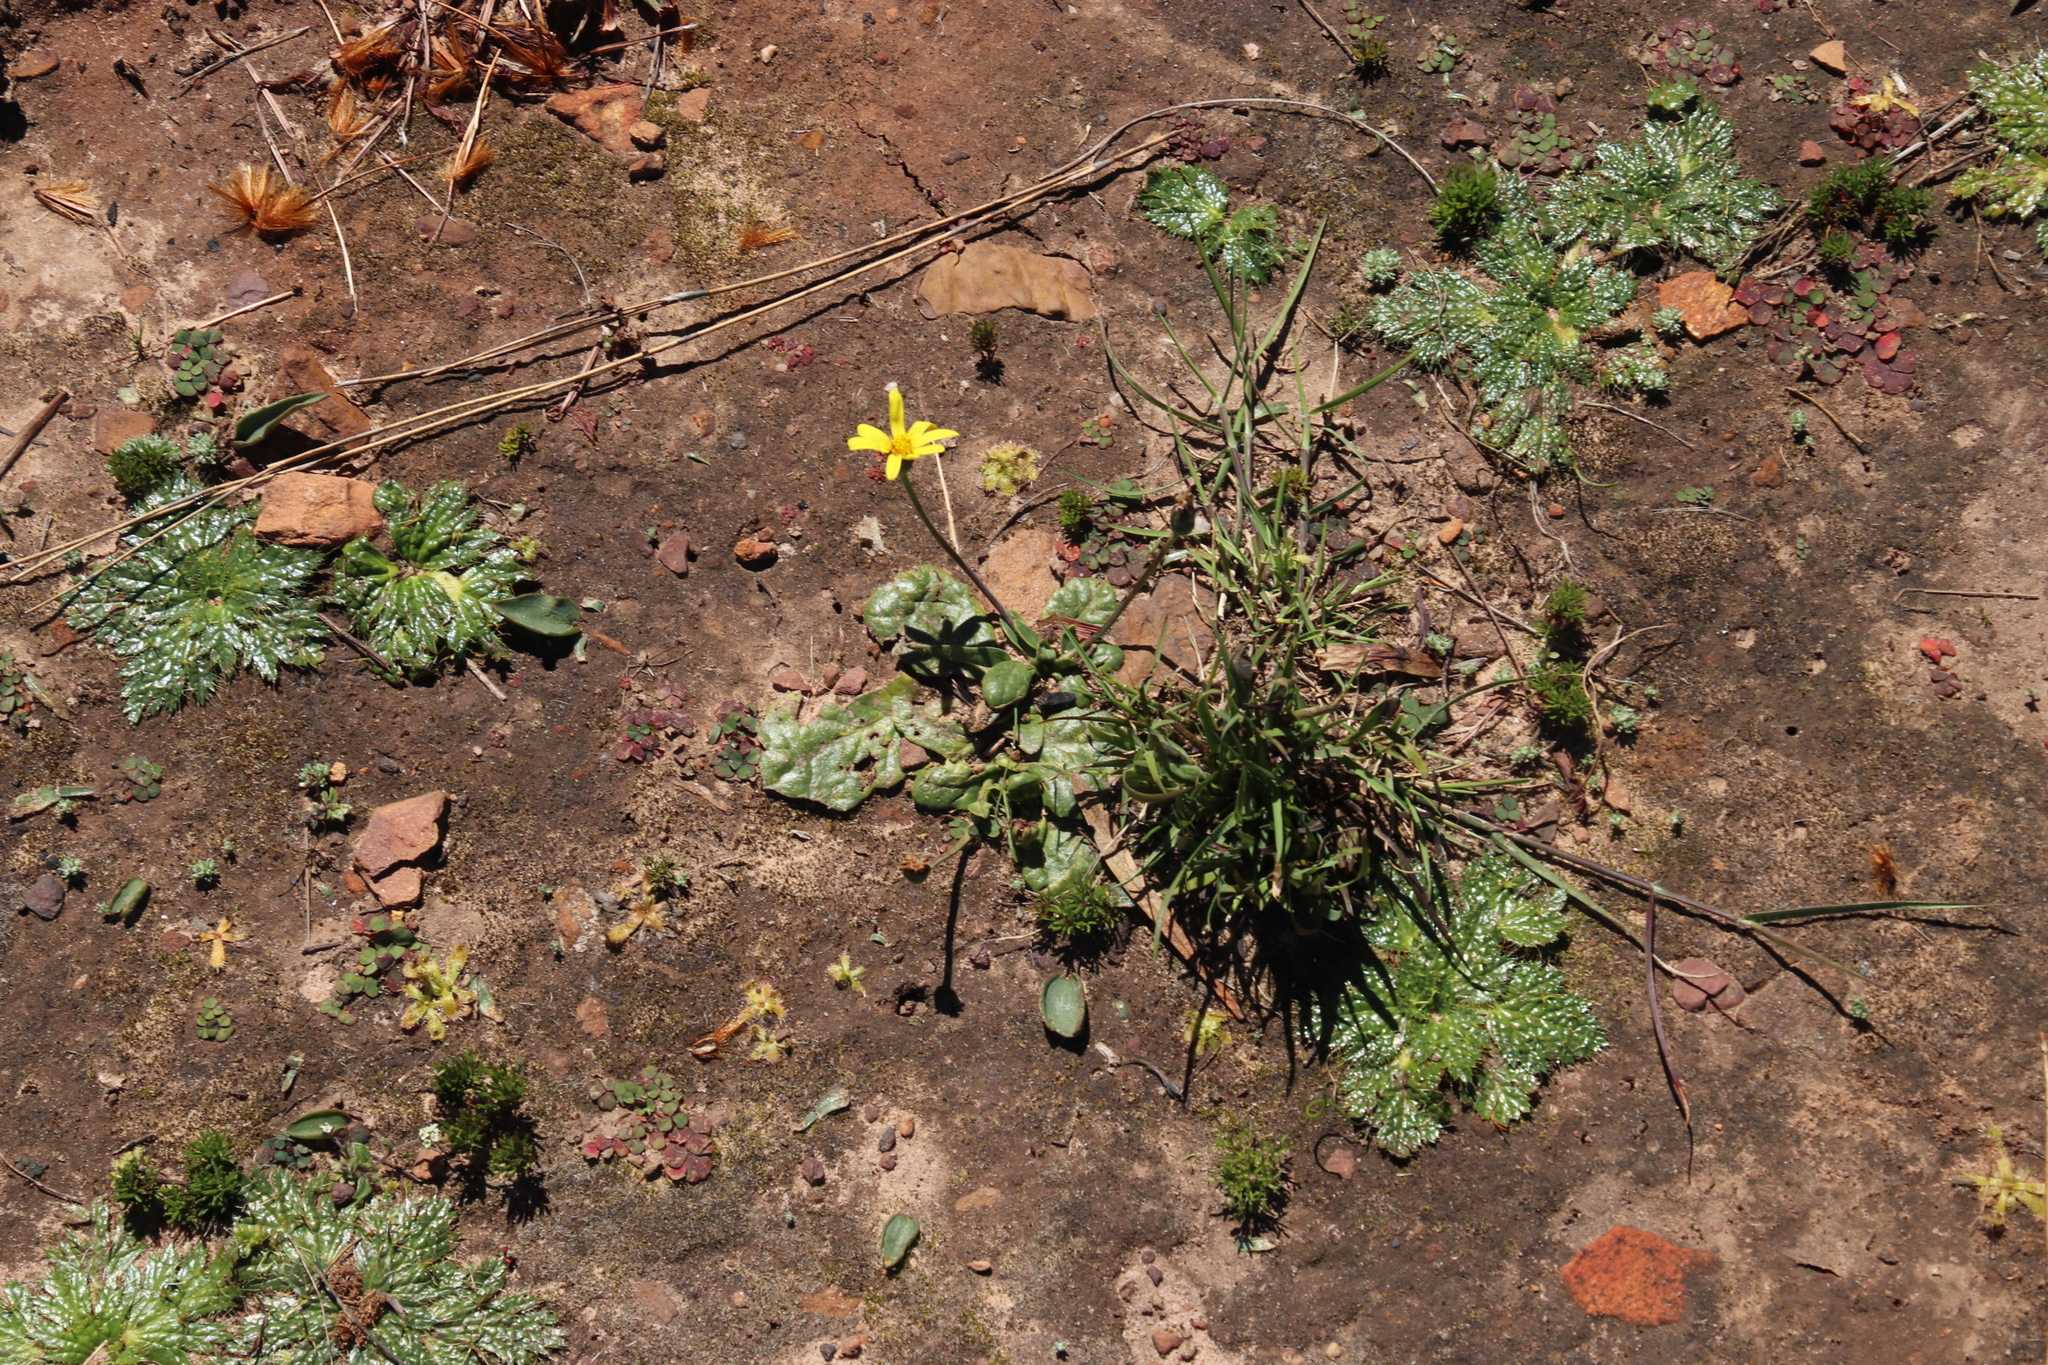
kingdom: Plantae
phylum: Tracheophyta
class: Magnoliopsida
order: Asterales
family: Asteraceae
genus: Othonna
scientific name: Othonna heterophylla
